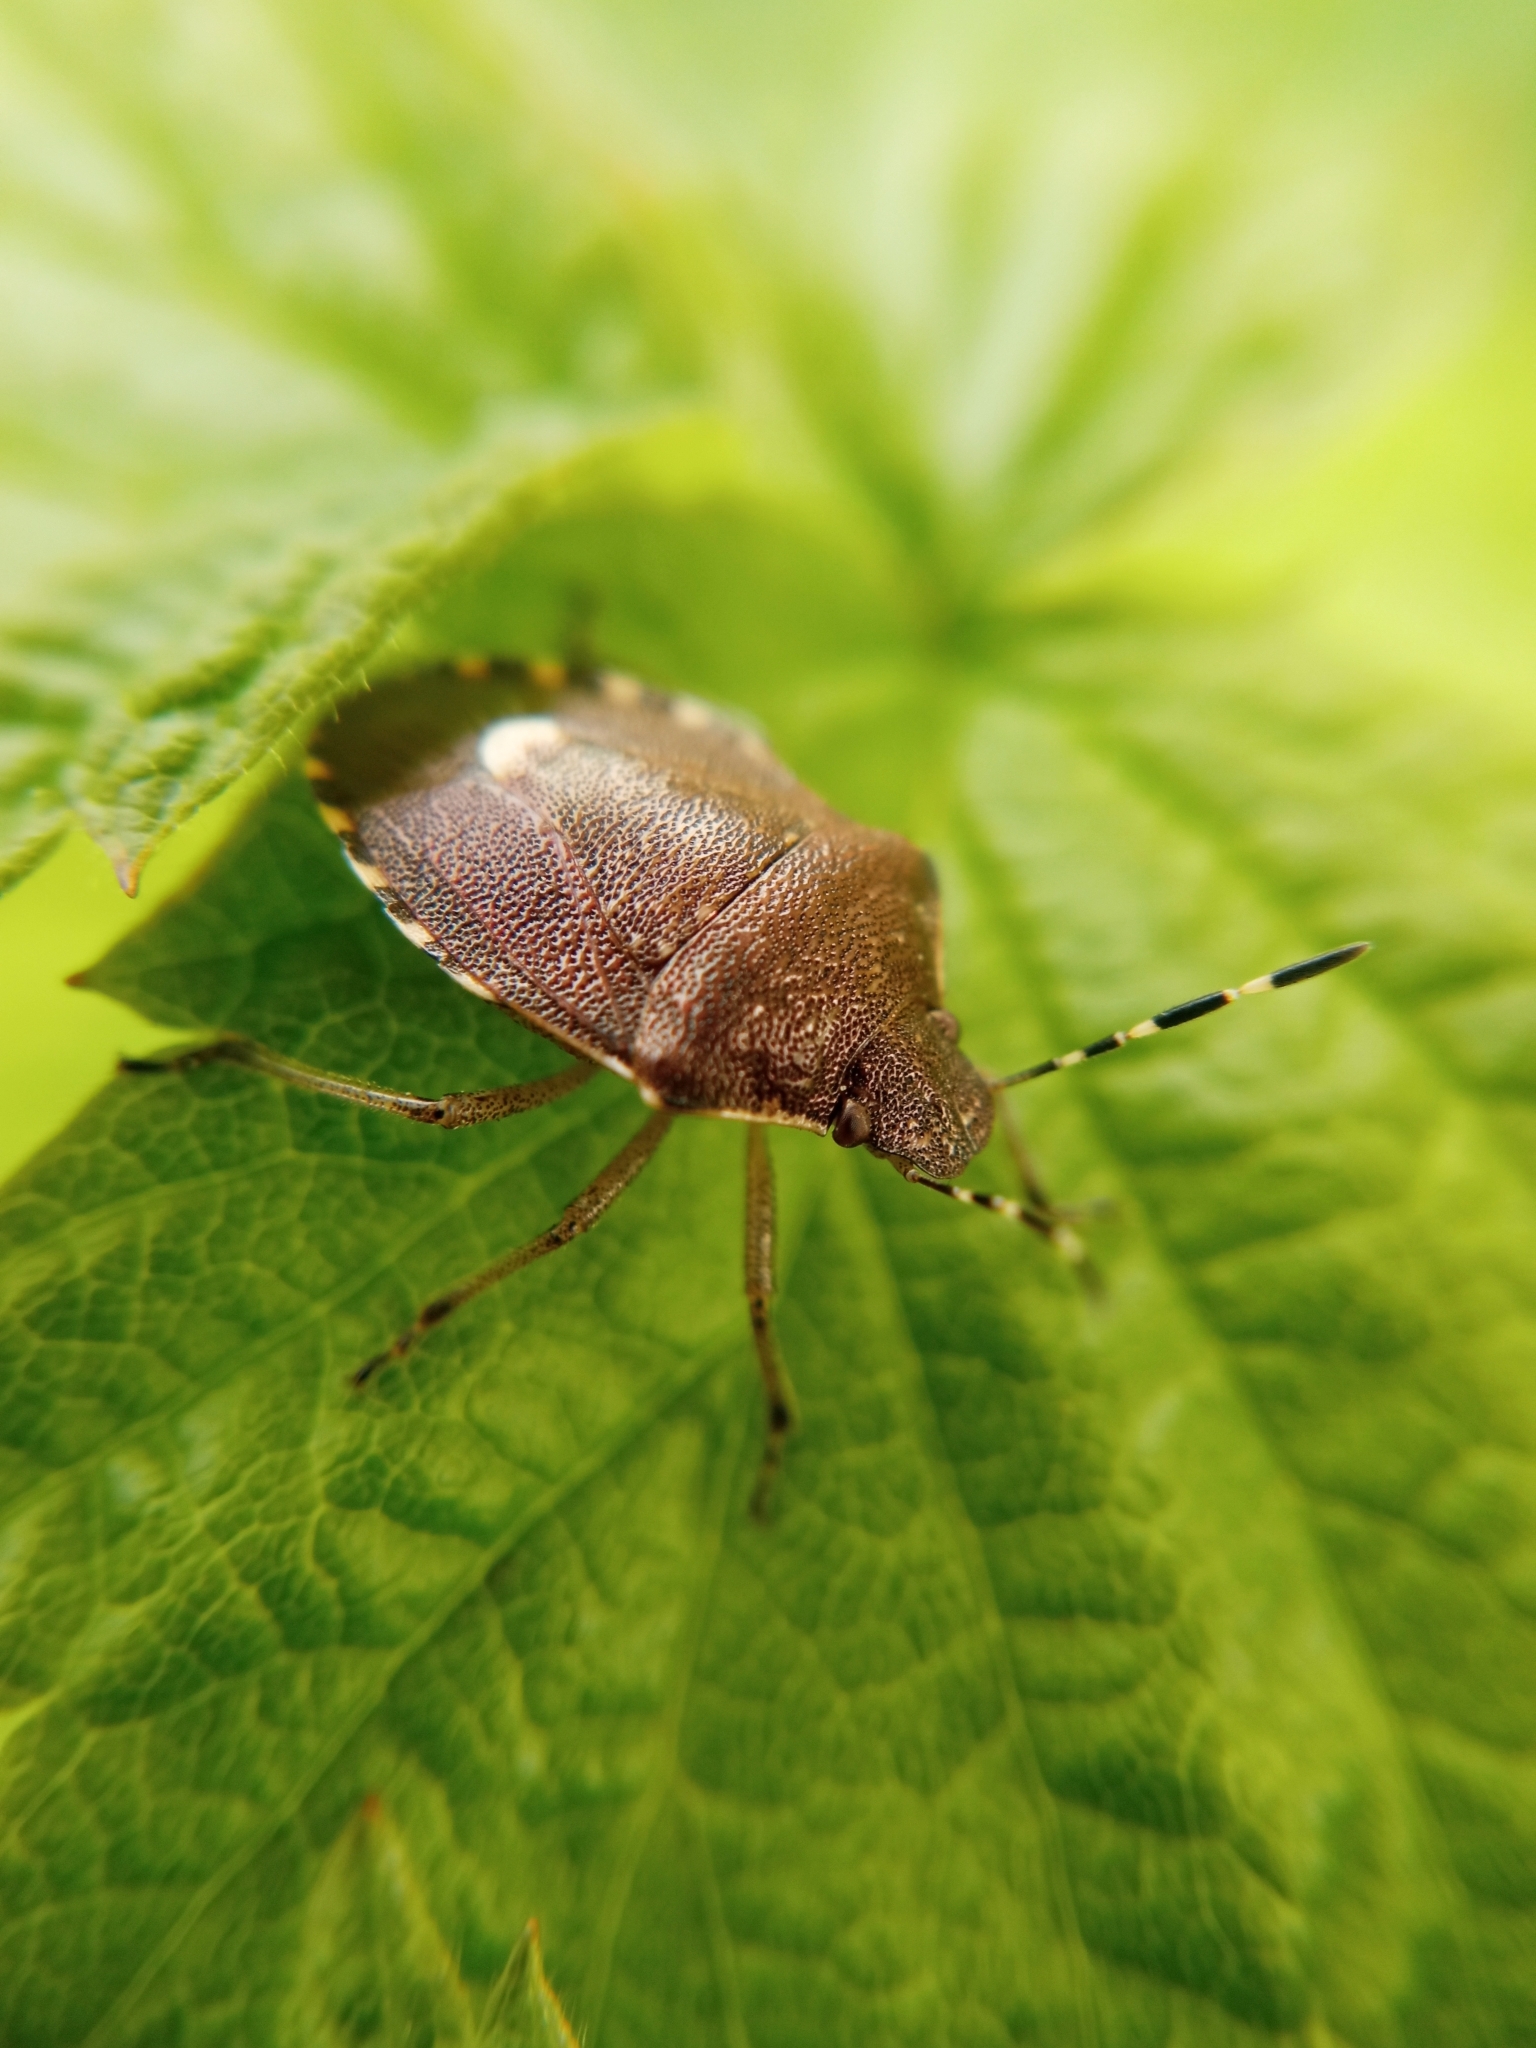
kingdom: Animalia
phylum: Arthropoda
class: Insecta
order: Hemiptera
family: Pentatomidae
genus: Holcostethus
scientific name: Holcostethus sphacelatus
